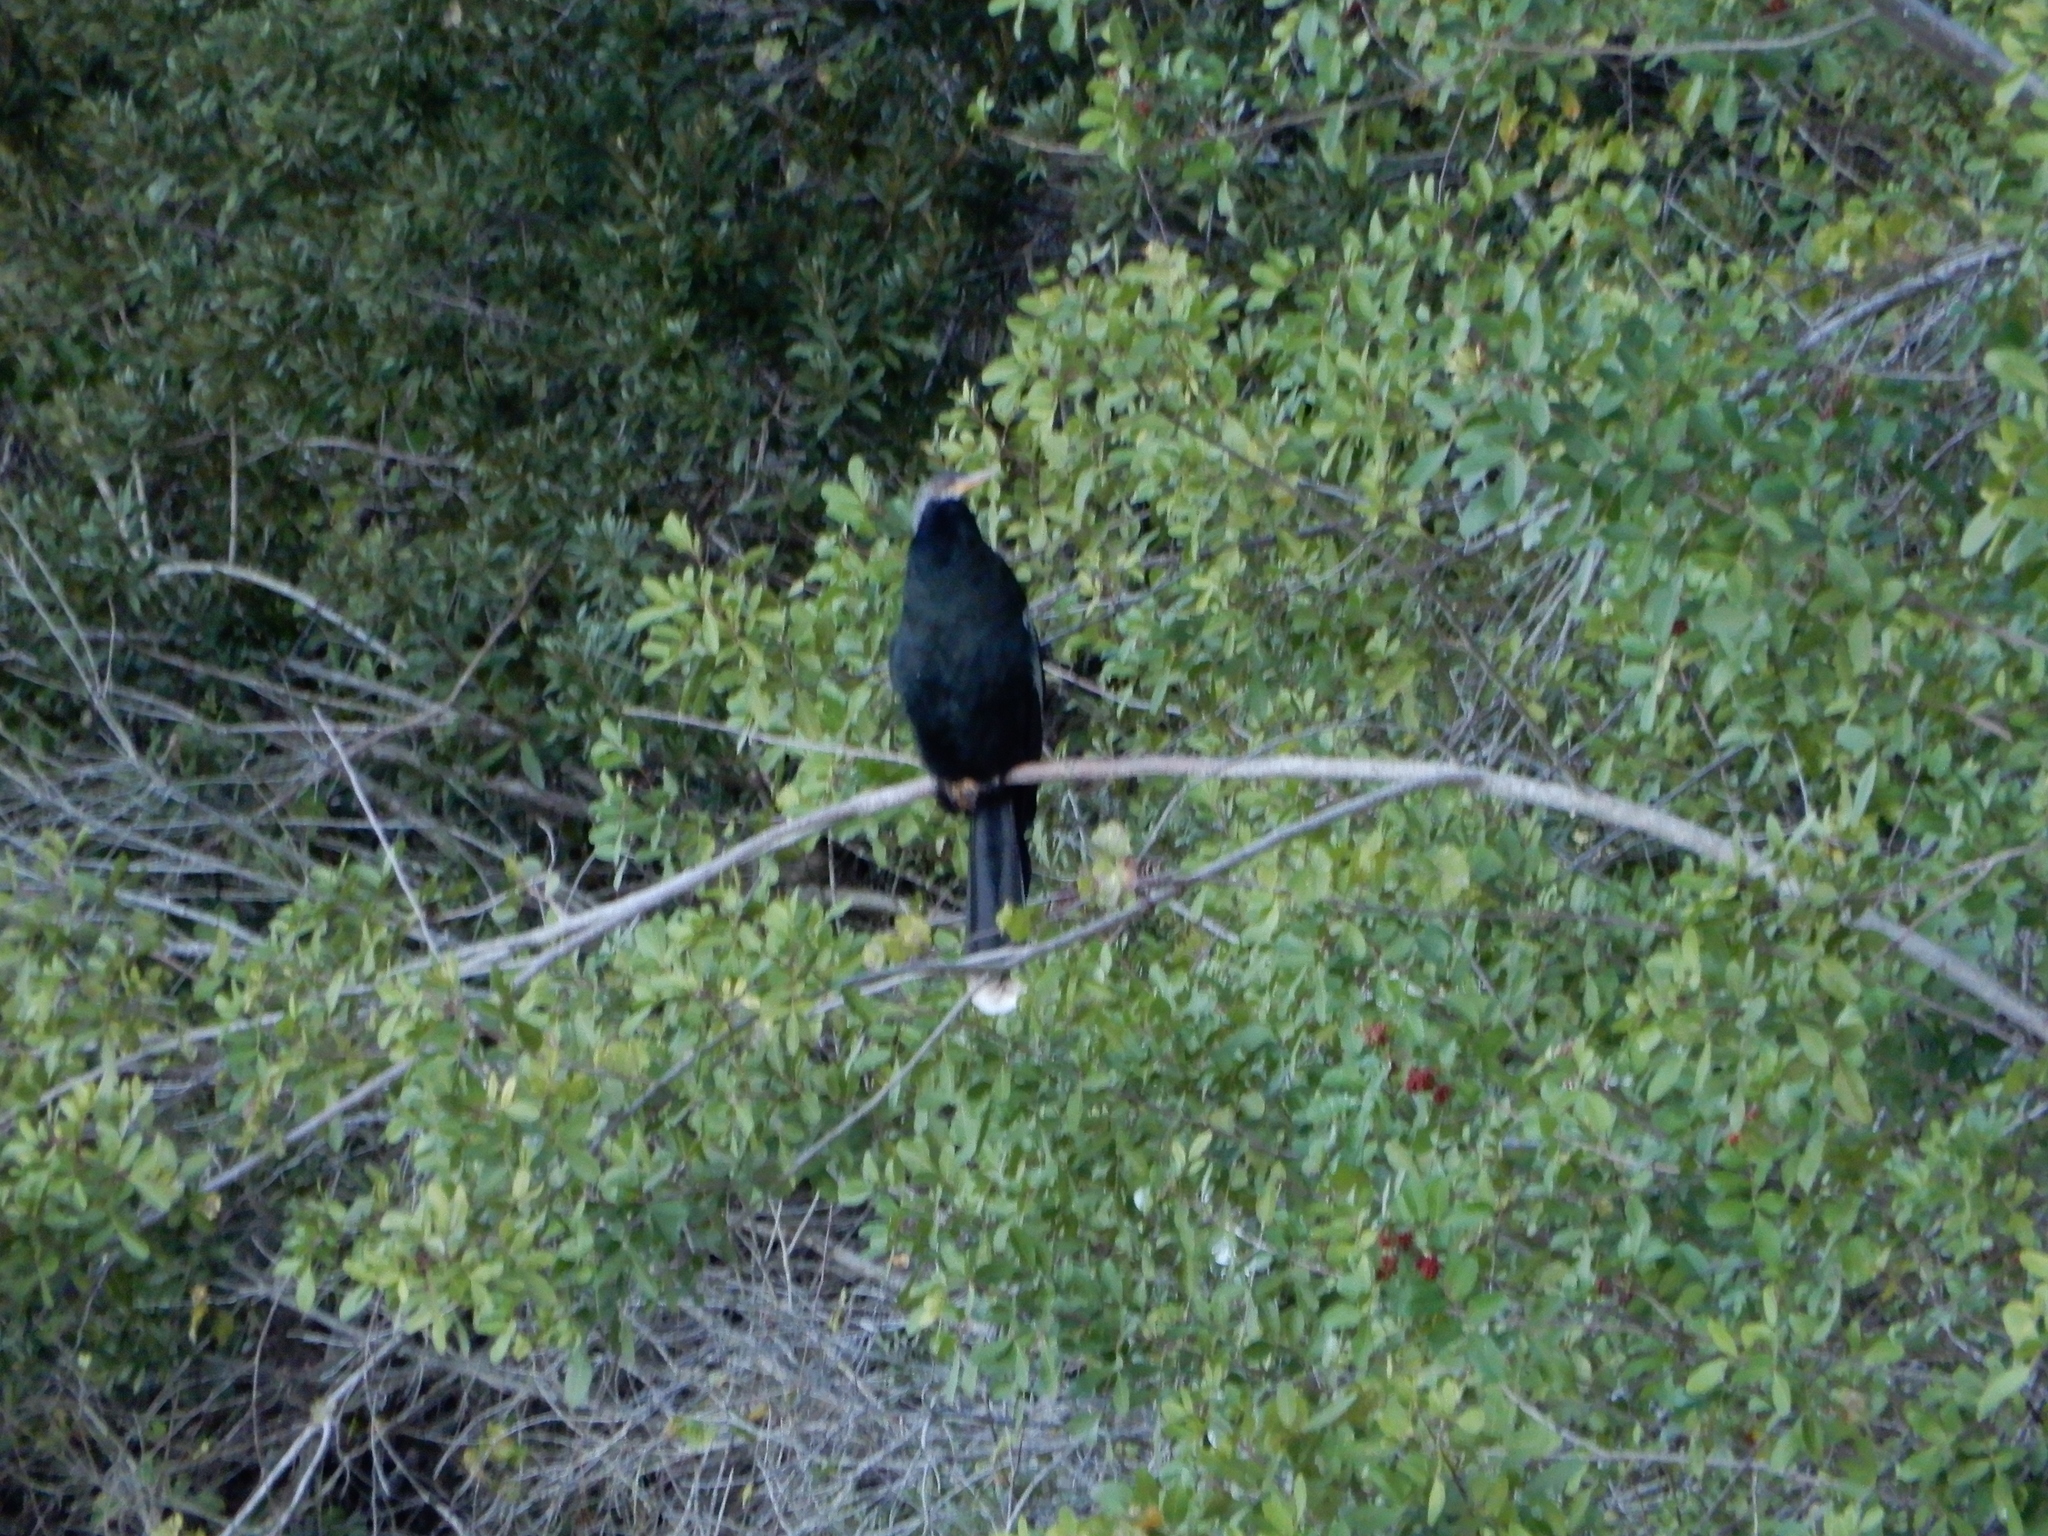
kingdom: Animalia
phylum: Chordata
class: Aves
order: Suliformes
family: Anhingidae
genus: Anhinga
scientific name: Anhinga anhinga
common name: Anhinga
